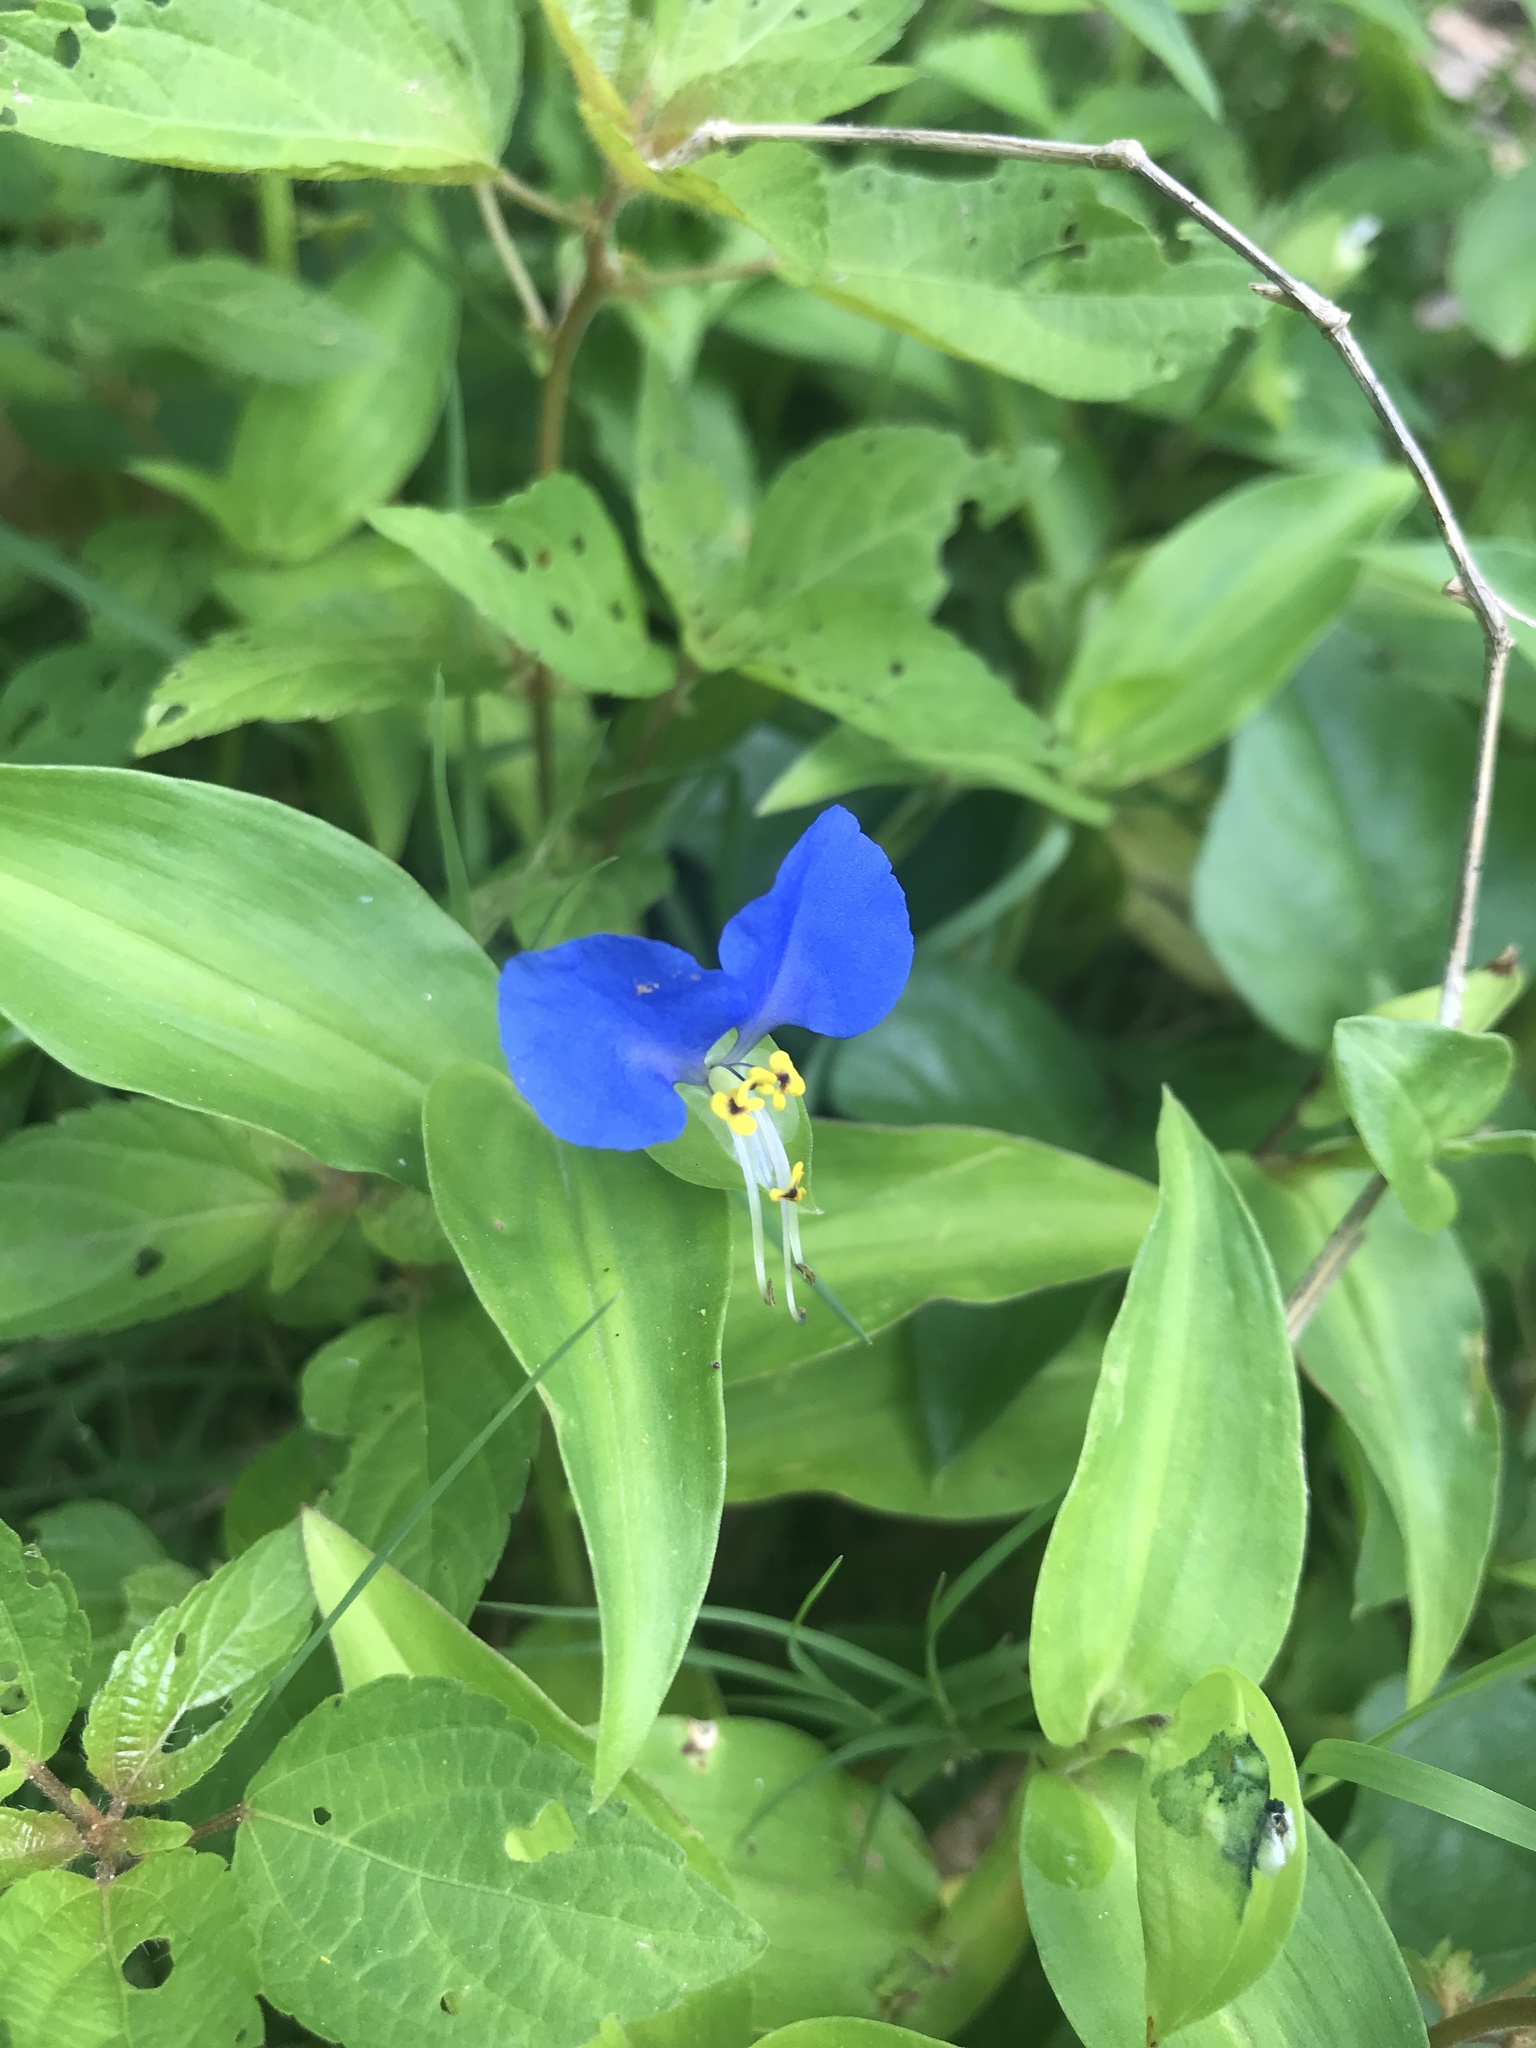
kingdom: Plantae
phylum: Tracheophyta
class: Liliopsida
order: Commelinales
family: Commelinaceae
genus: Commelina
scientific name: Commelina communis
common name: Asiatic dayflower
